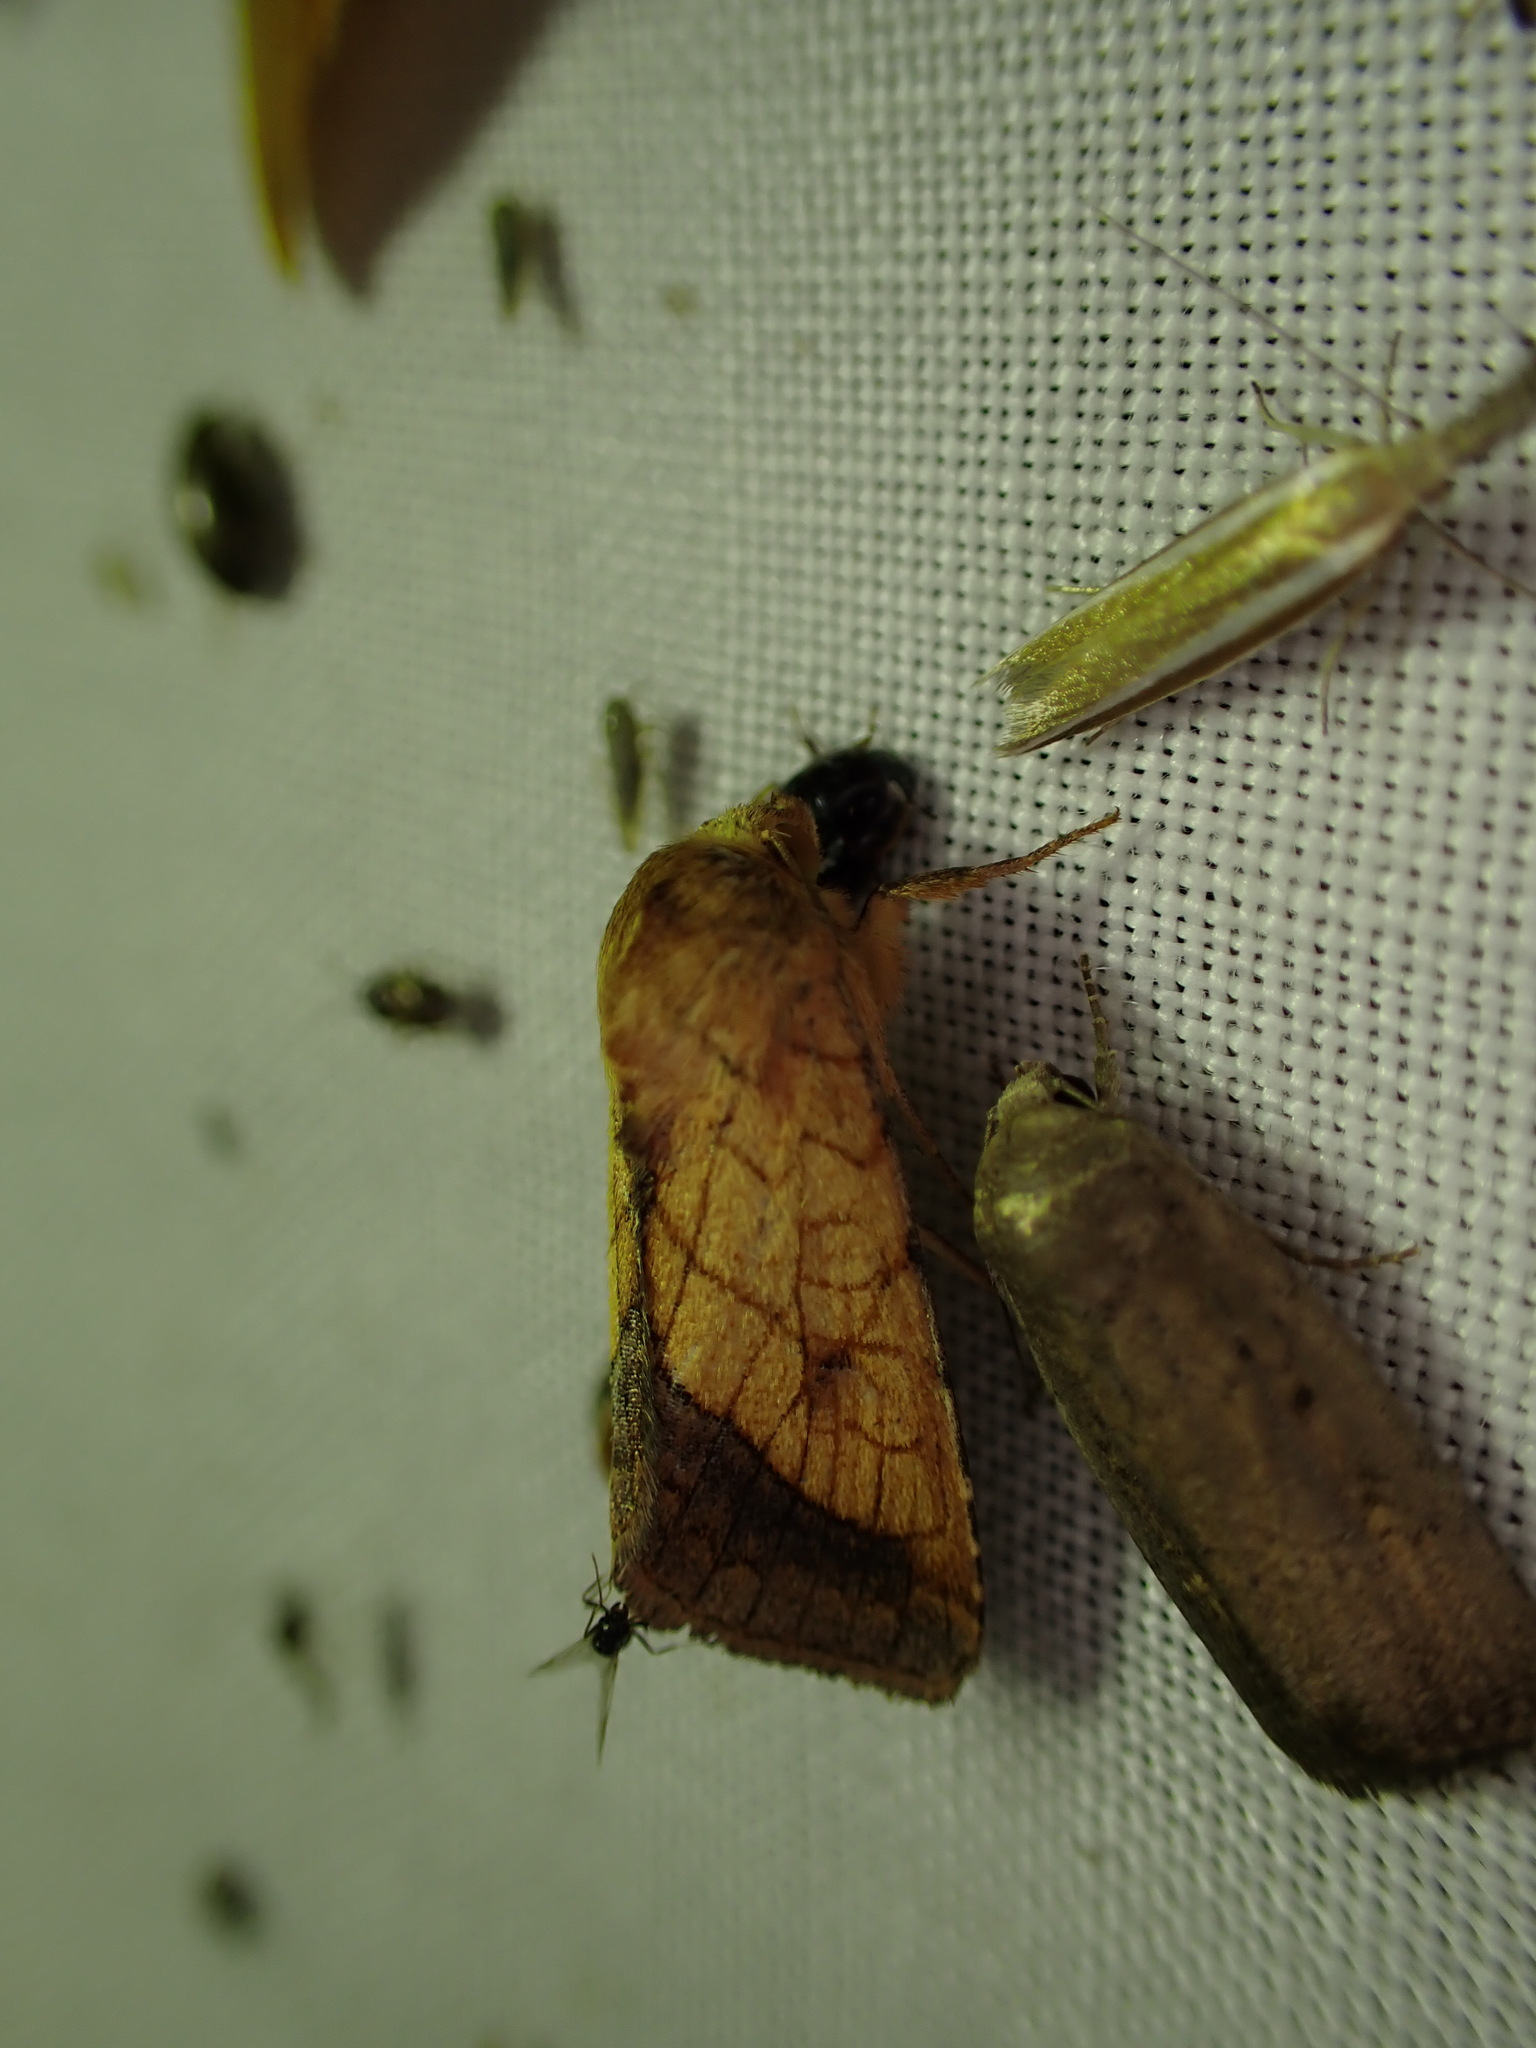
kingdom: Animalia
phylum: Arthropoda
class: Insecta
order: Lepidoptera
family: Noctuidae
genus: Pyrrhia
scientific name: Pyrrhia umbra
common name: Bordered sallow
